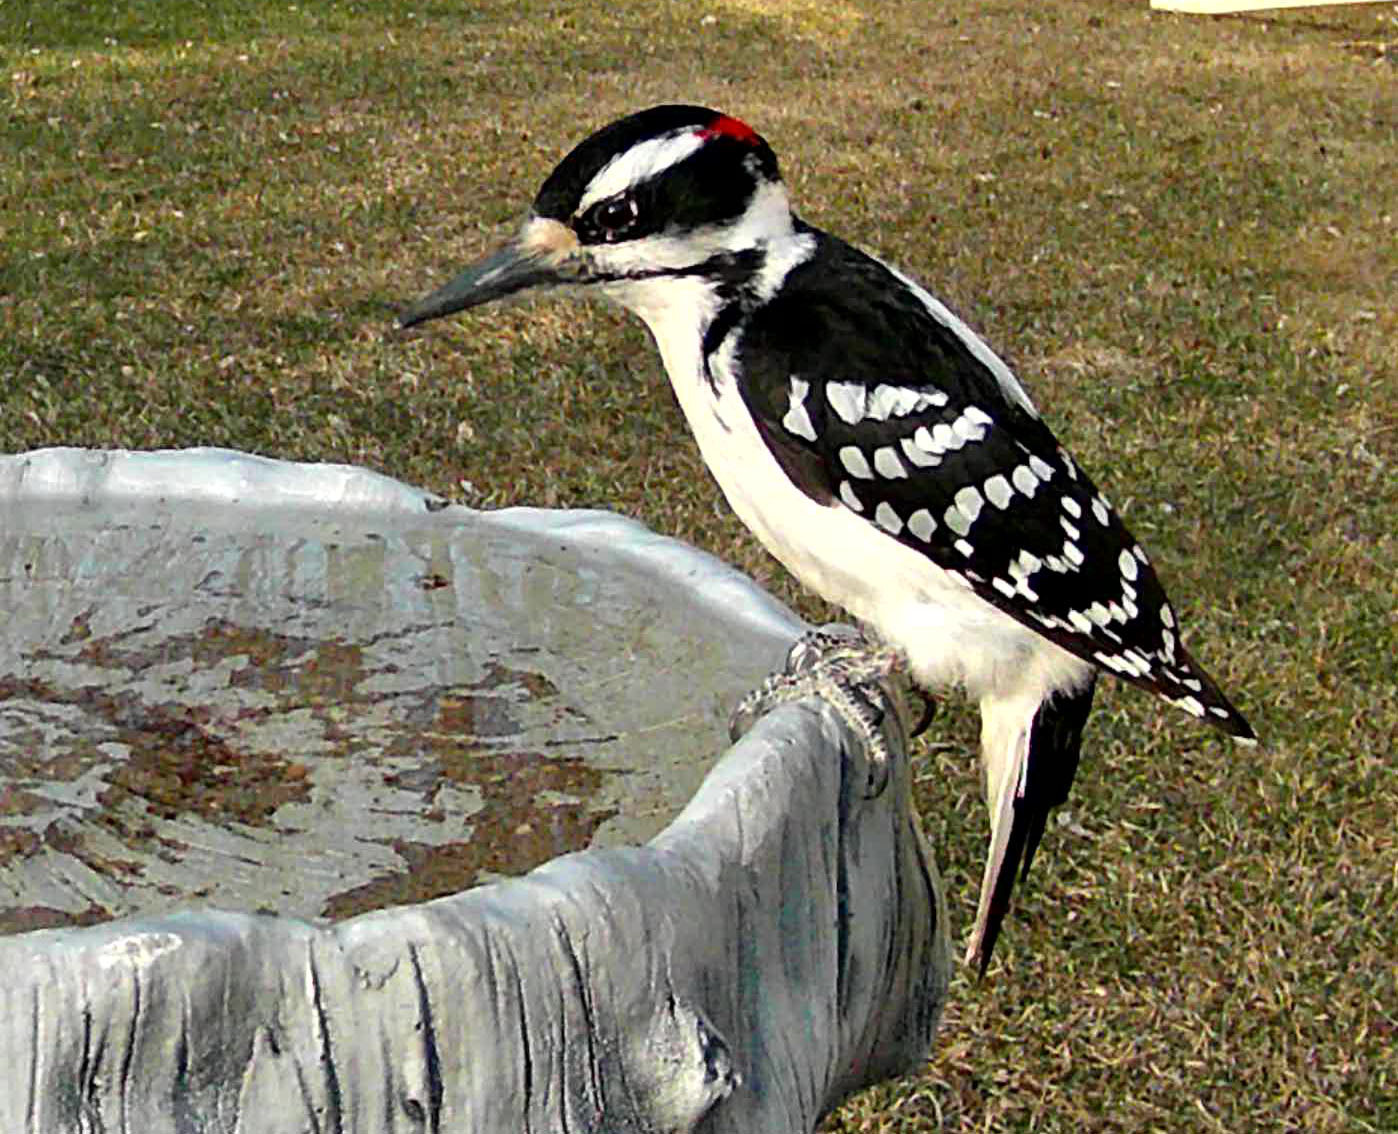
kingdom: Animalia
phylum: Chordata
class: Aves
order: Piciformes
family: Picidae
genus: Leuconotopicus
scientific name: Leuconotopicus villosus
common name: Hairy woodpecker
